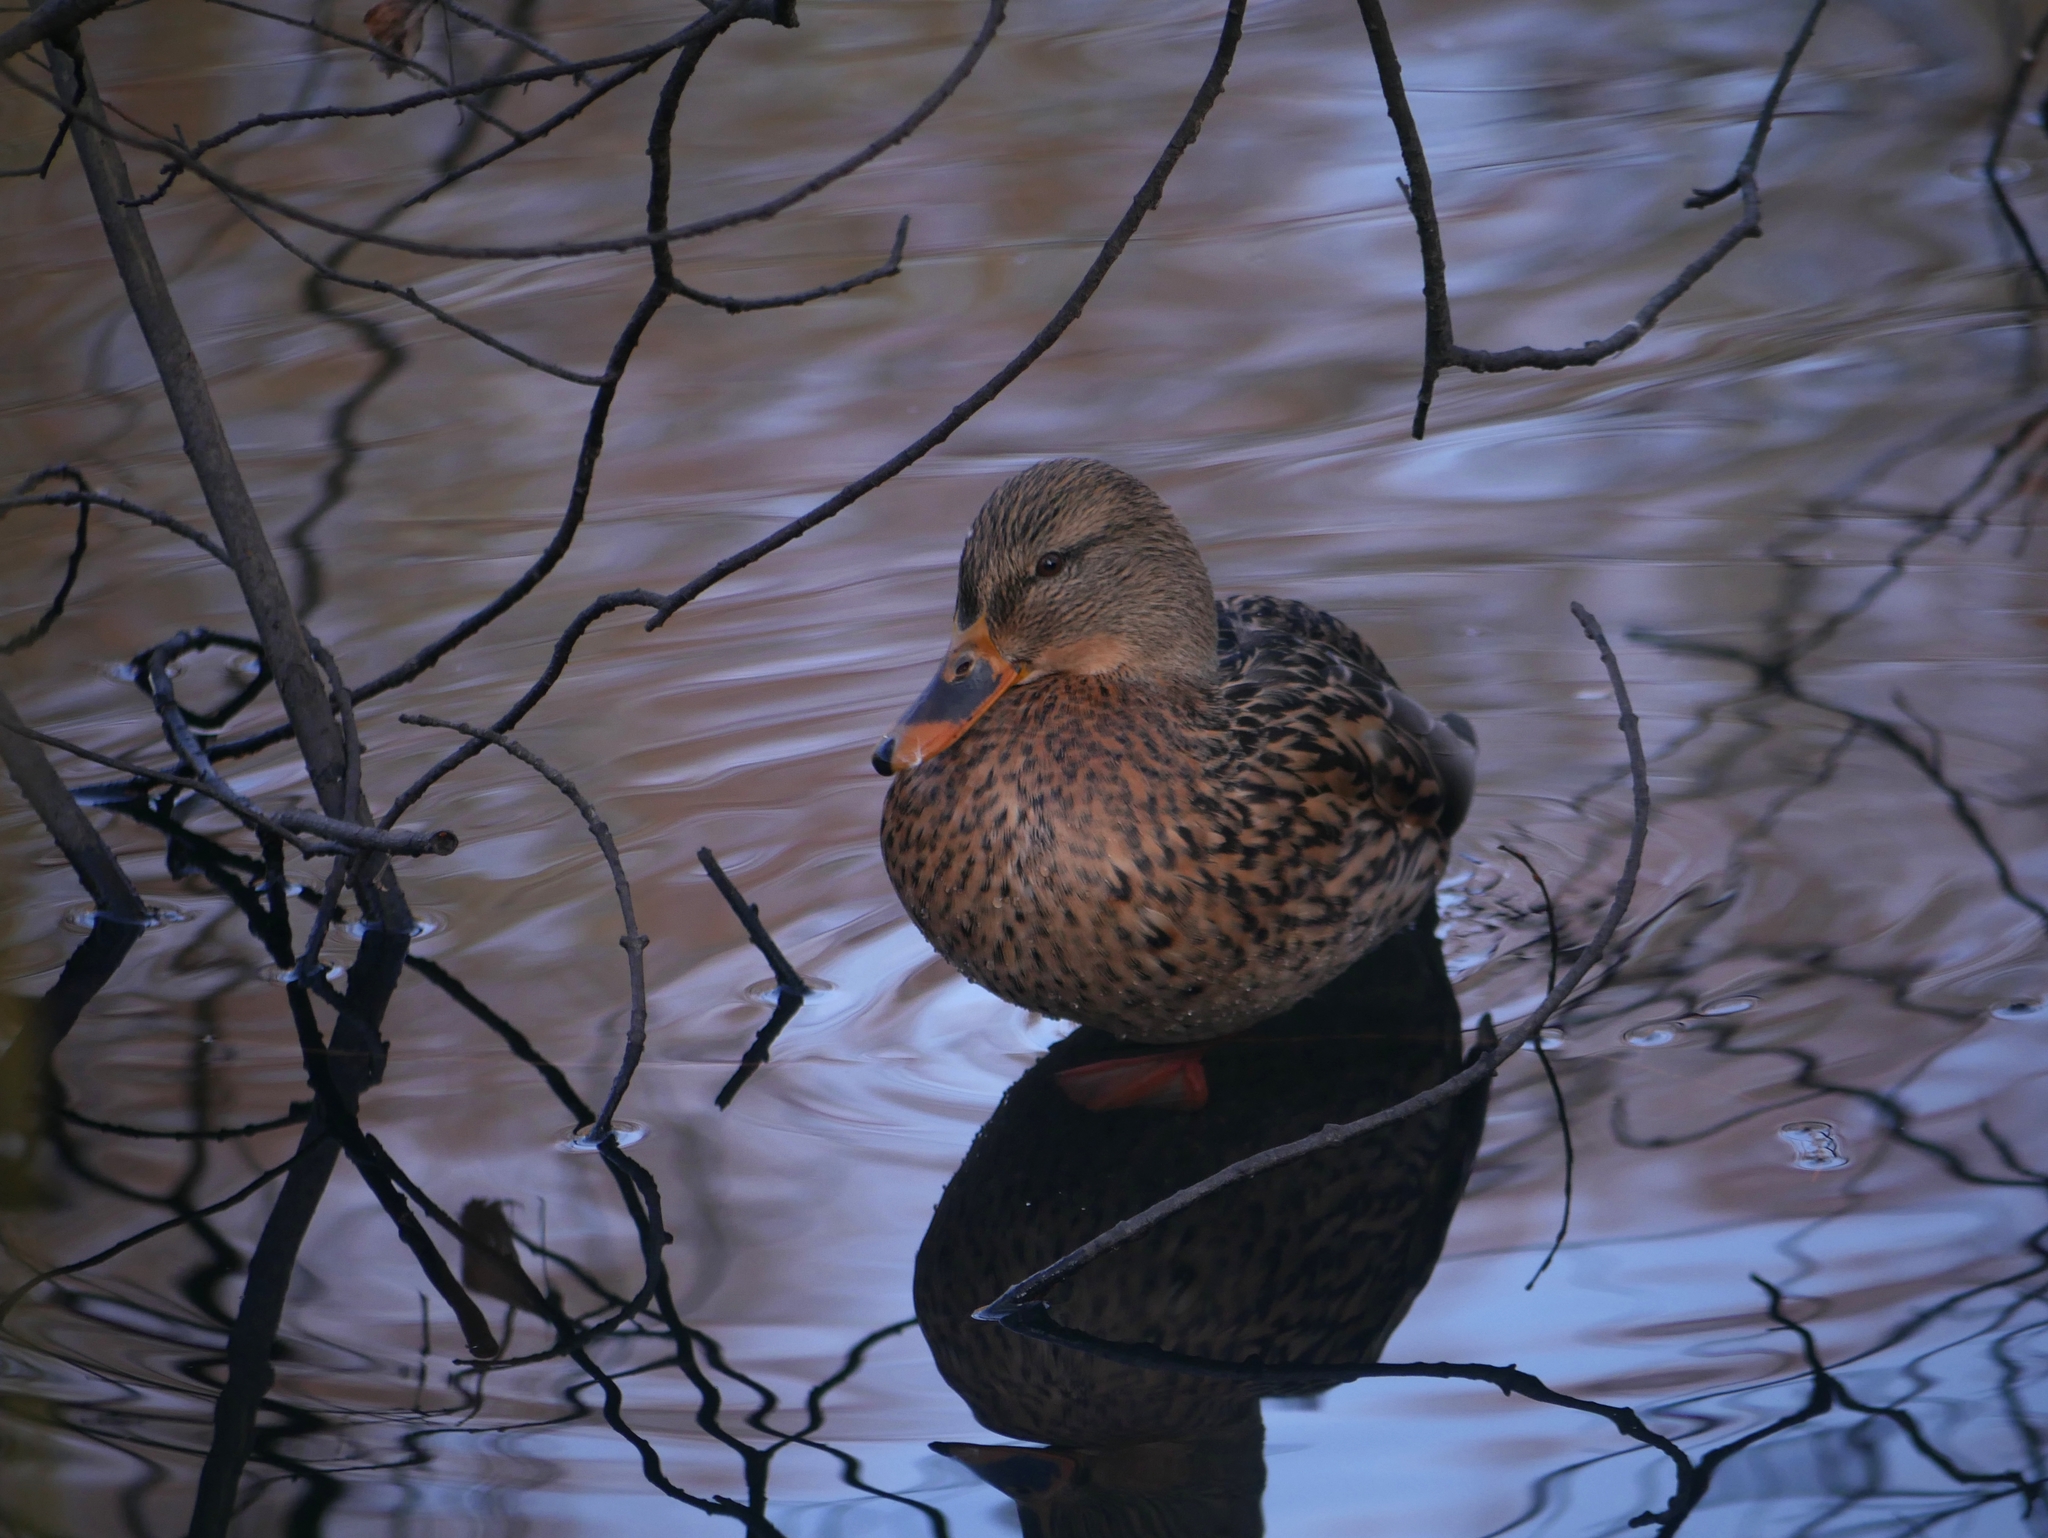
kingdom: Animalia
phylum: Chordata
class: Aves
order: Anseriformes
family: Anatidae
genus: Anas
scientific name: Anas platyrhynchos
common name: Mallard
